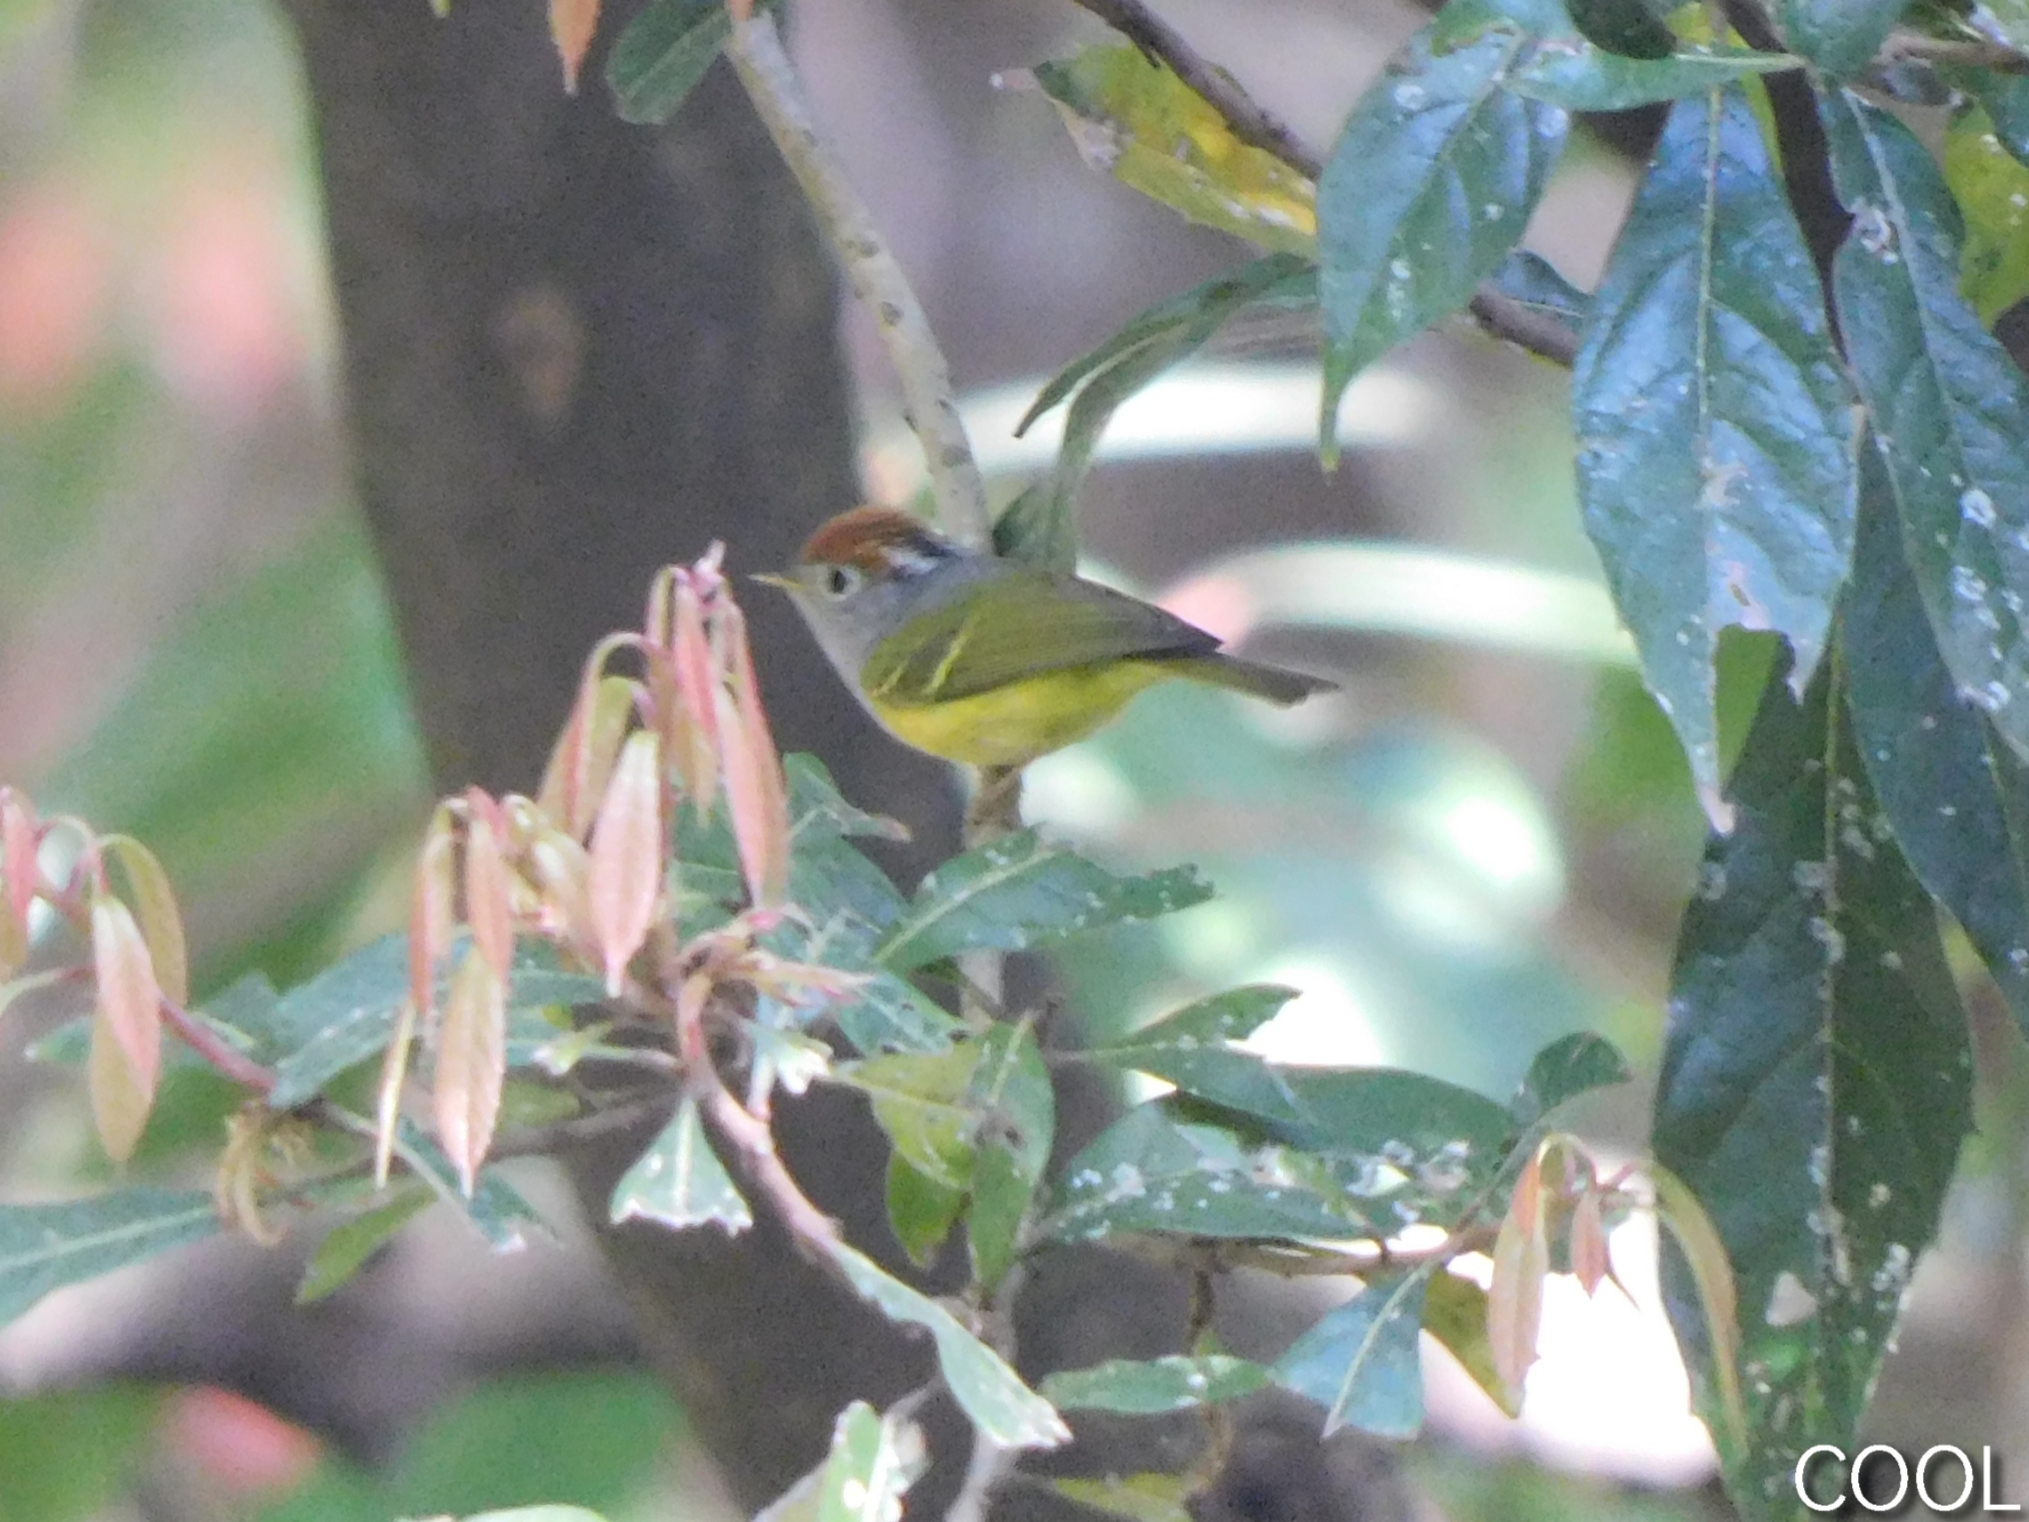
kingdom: Animalia
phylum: Chordata
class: Aves
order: Passeriformes
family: Phylloscopidae
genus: Seicercus
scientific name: Seicercus castaniceps
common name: Chestnut-crowned warbler
